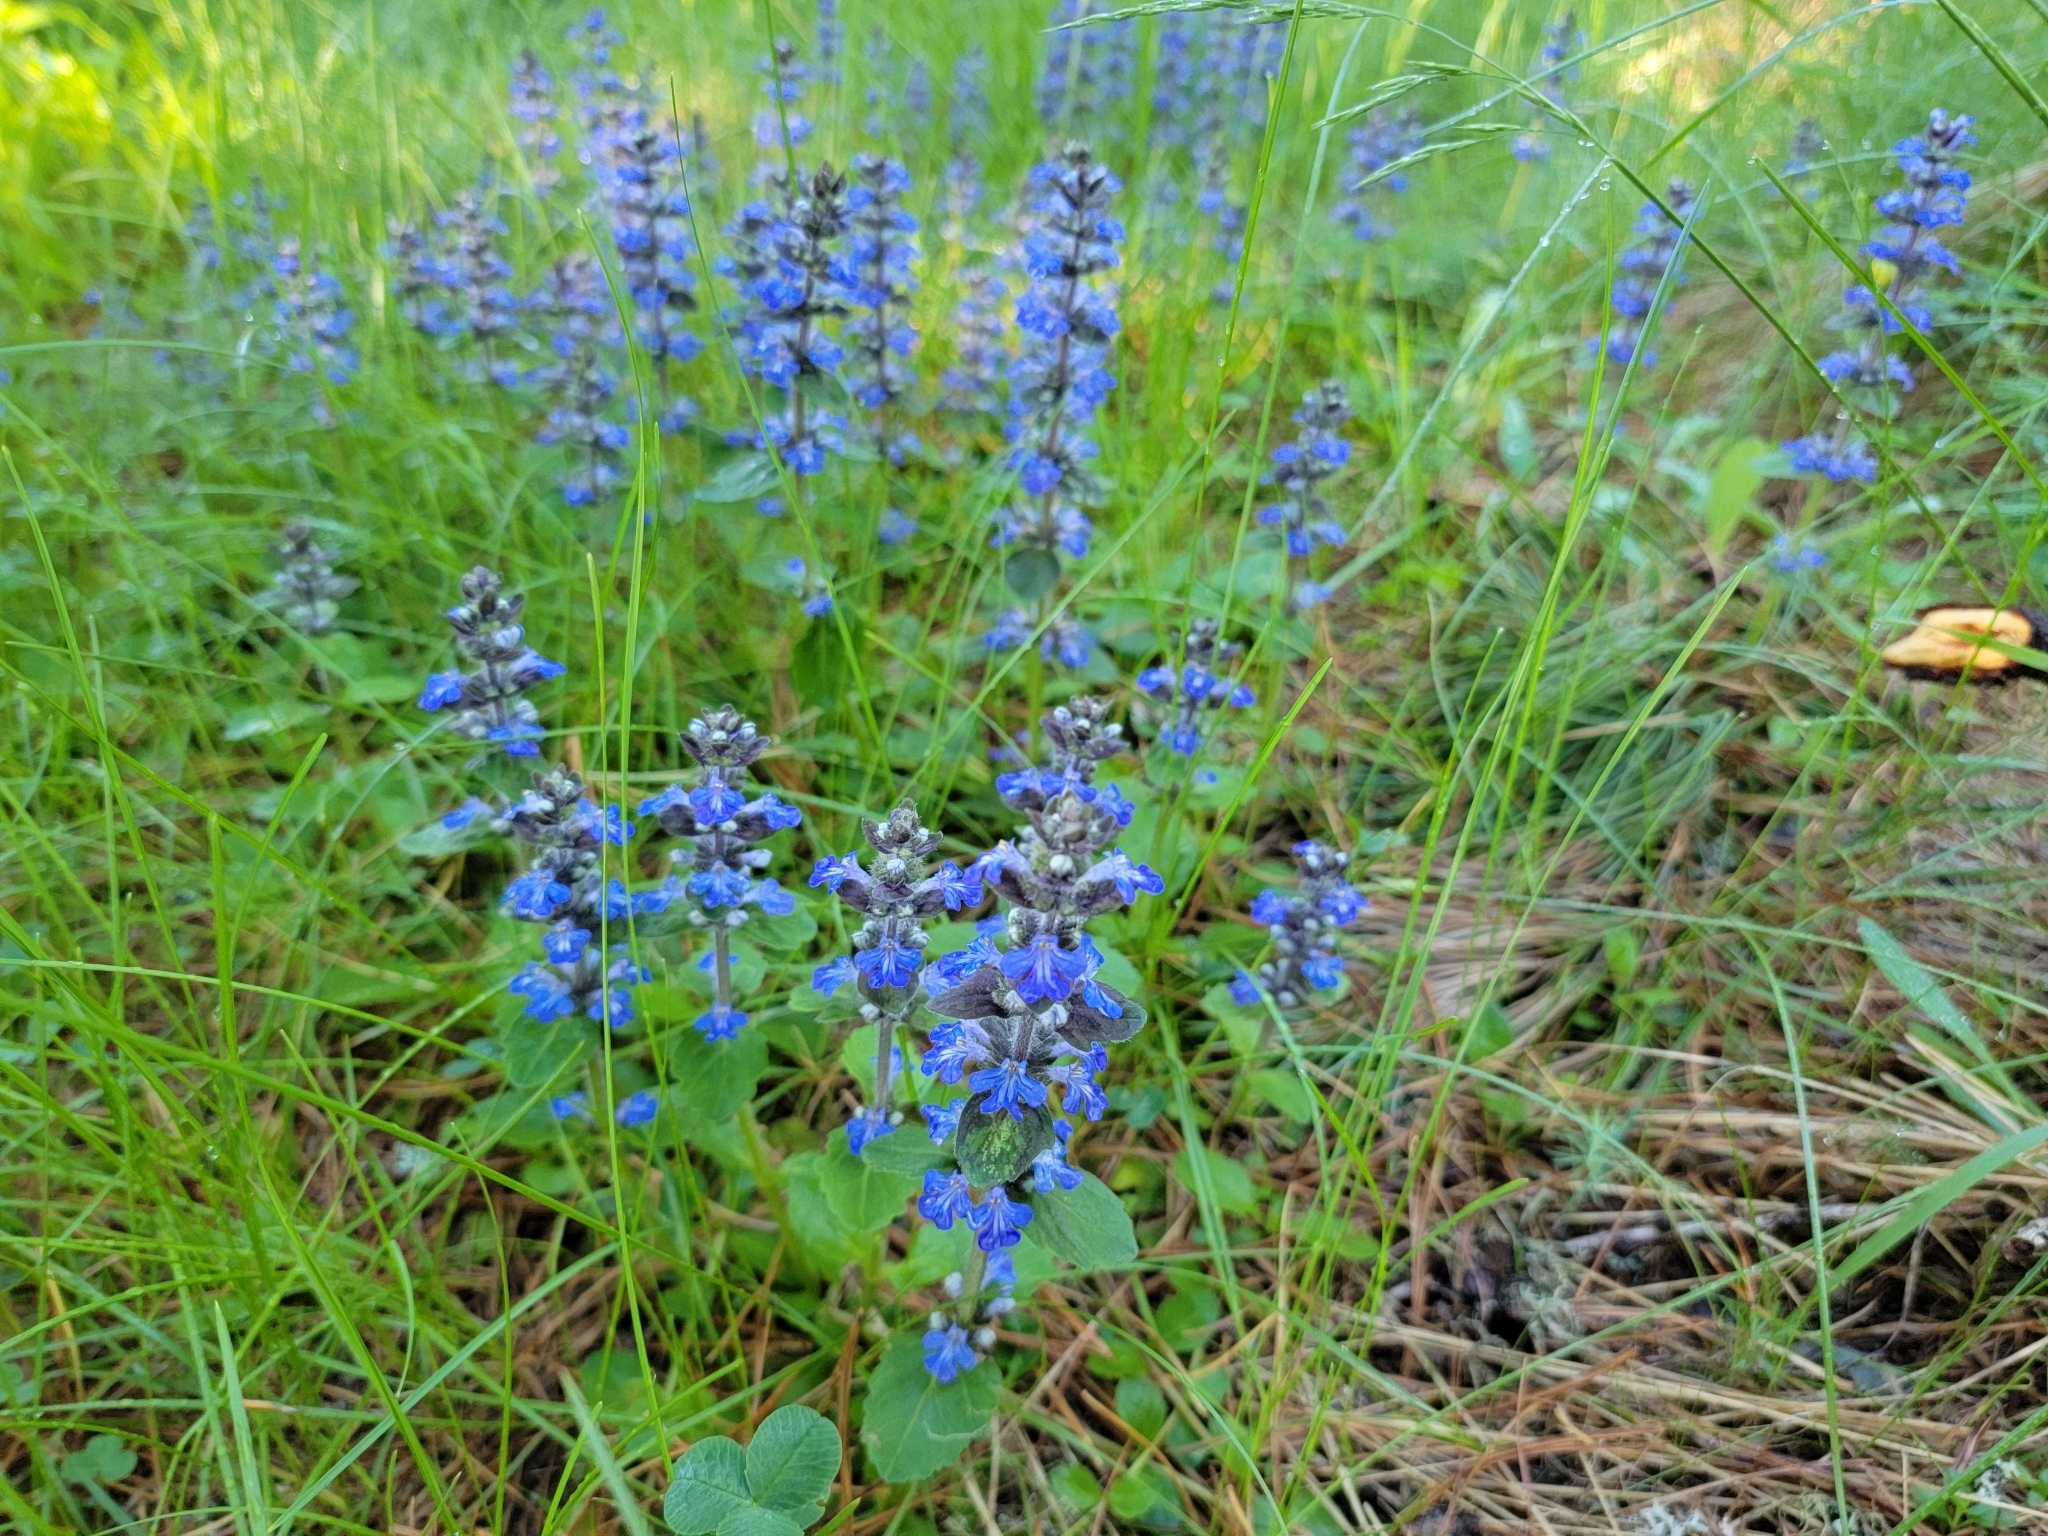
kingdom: Plantae
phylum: Tracheophyta
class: Magnoliopsida
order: Lamiales
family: Lamiaceae
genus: Ajuga
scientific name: Ajuga reptans
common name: Bugle
